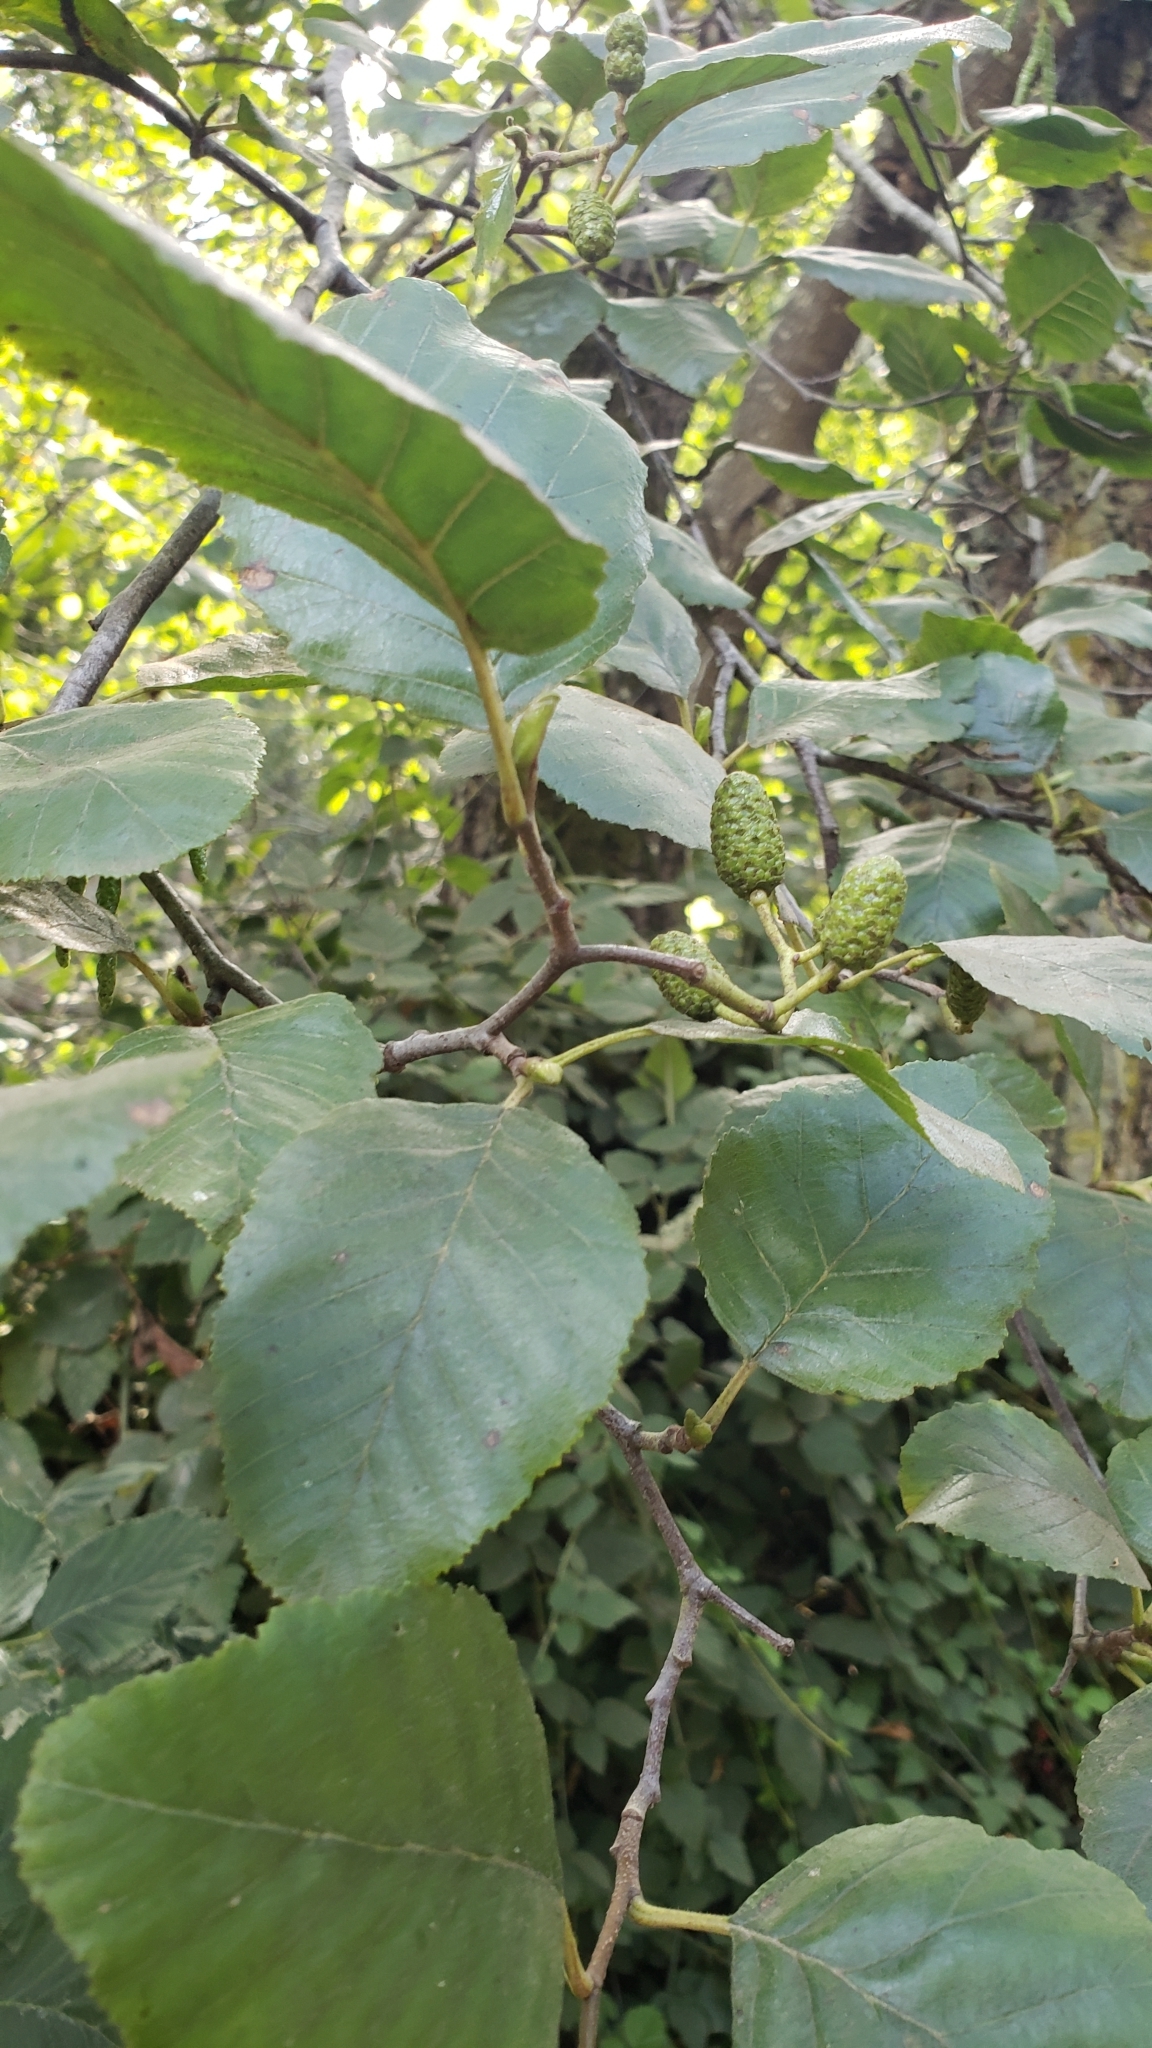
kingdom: Plantae
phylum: Tracheophyta
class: Magnoliopsida
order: Fagales
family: Betulaceae
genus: Alnus
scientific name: Alnus rhombifolia
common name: California alder
